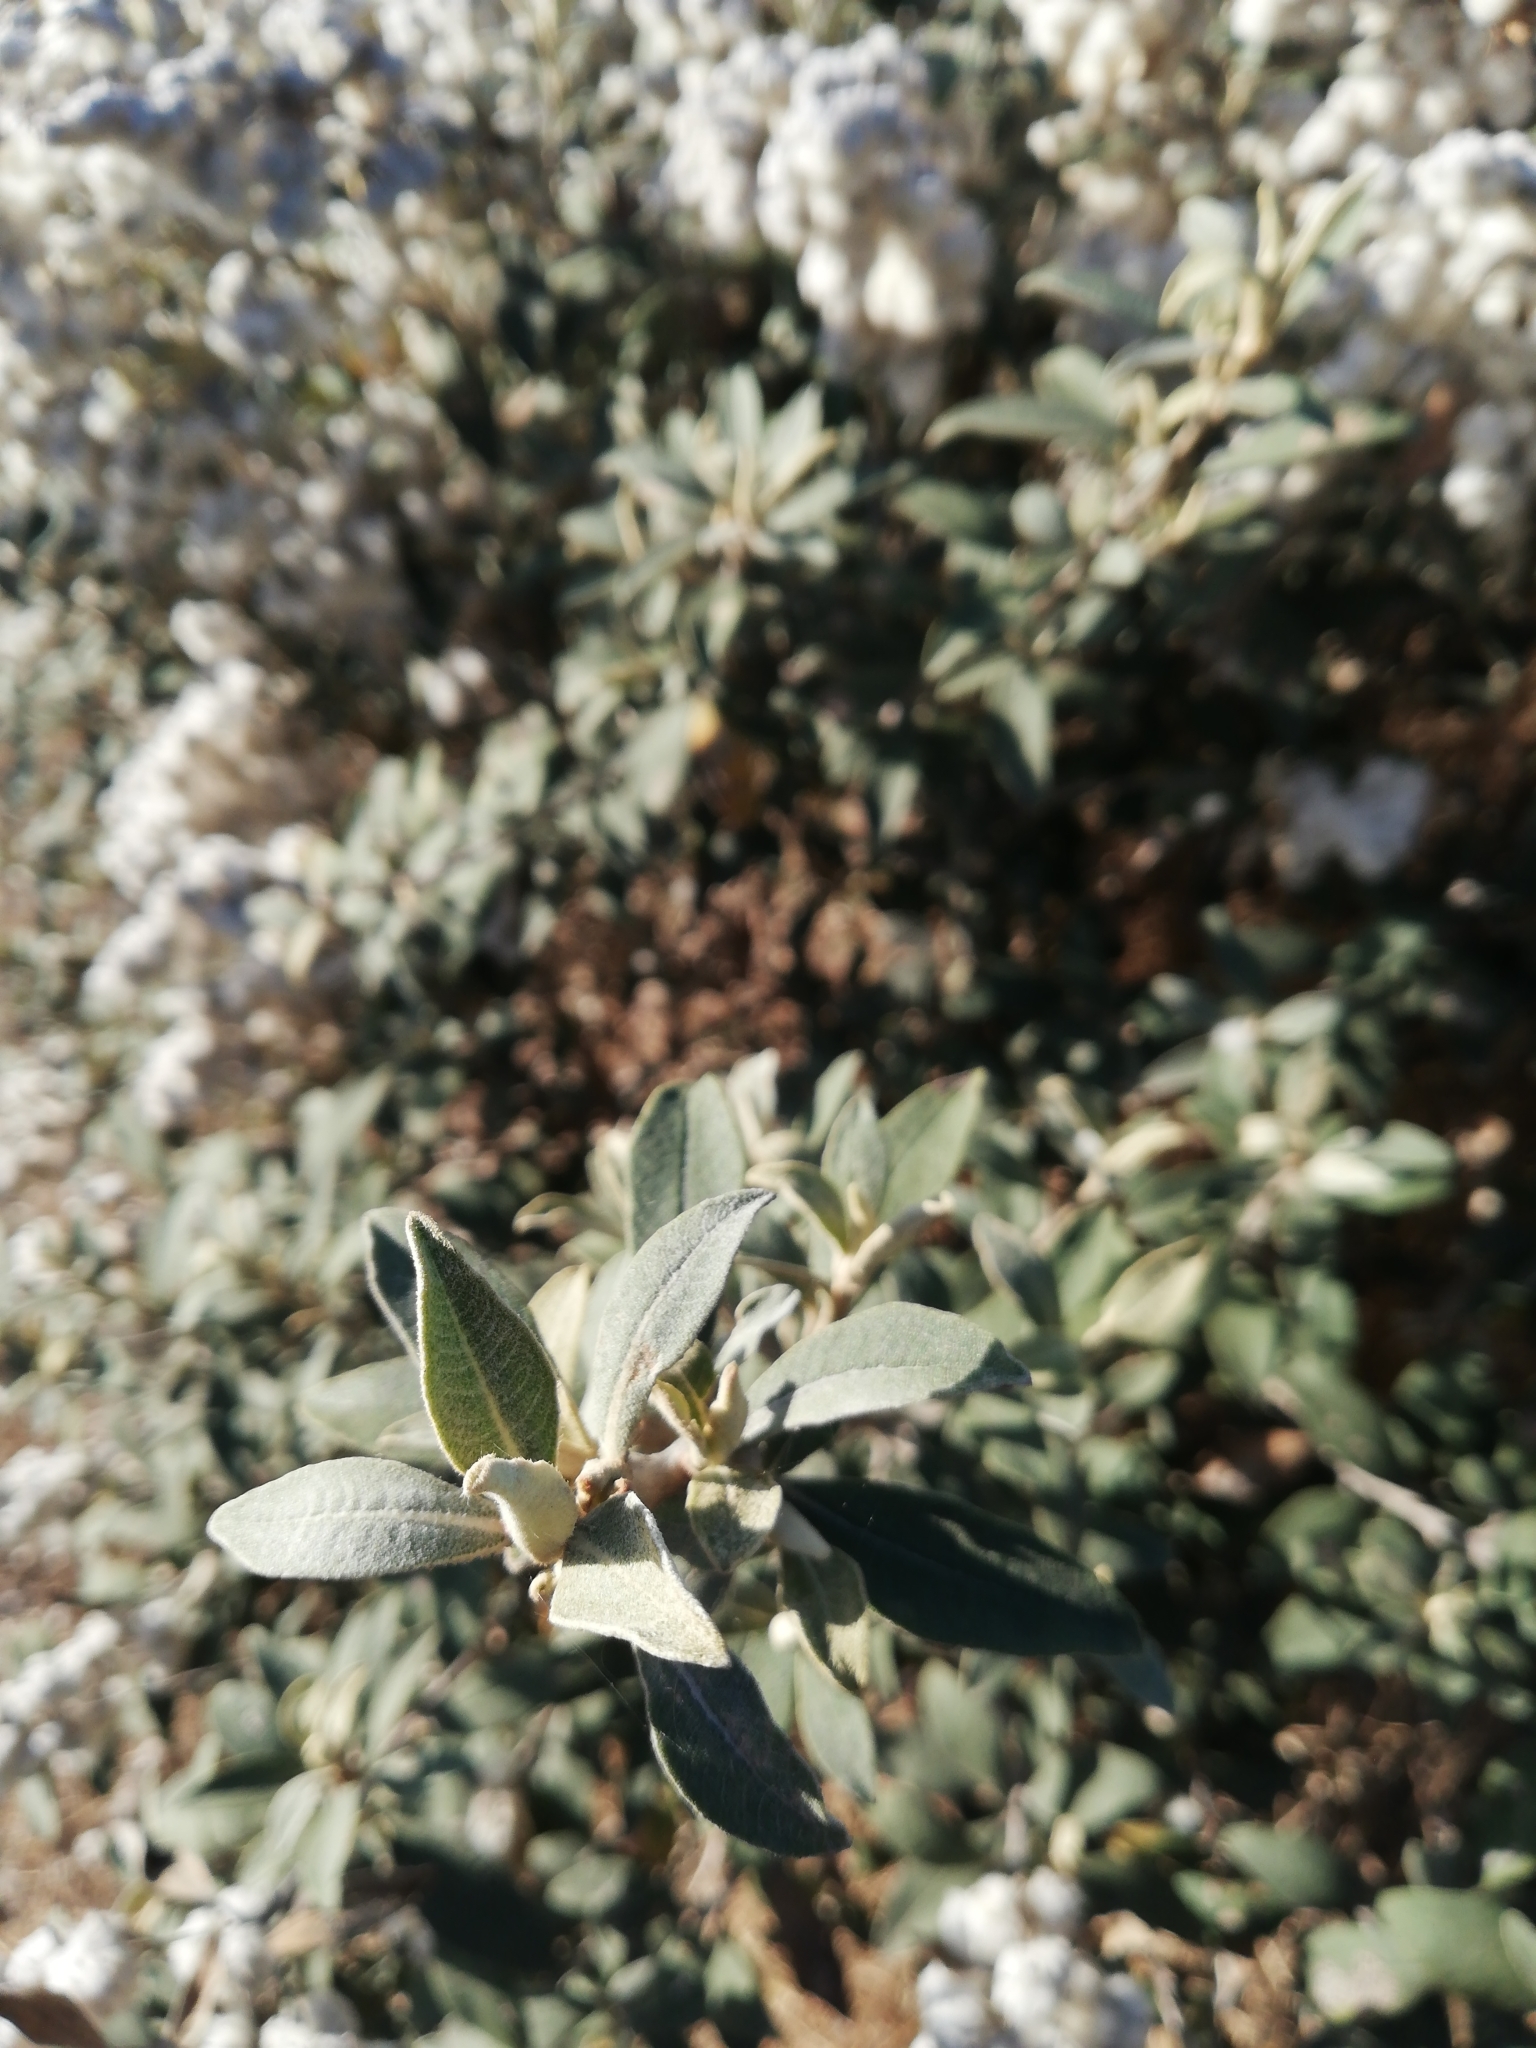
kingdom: Plantae
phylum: Tracheophyta
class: Magnoliopsida
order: Asterales
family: Asteraceae
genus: Tarchonanthus
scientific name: Tarchonanthus littoralis
